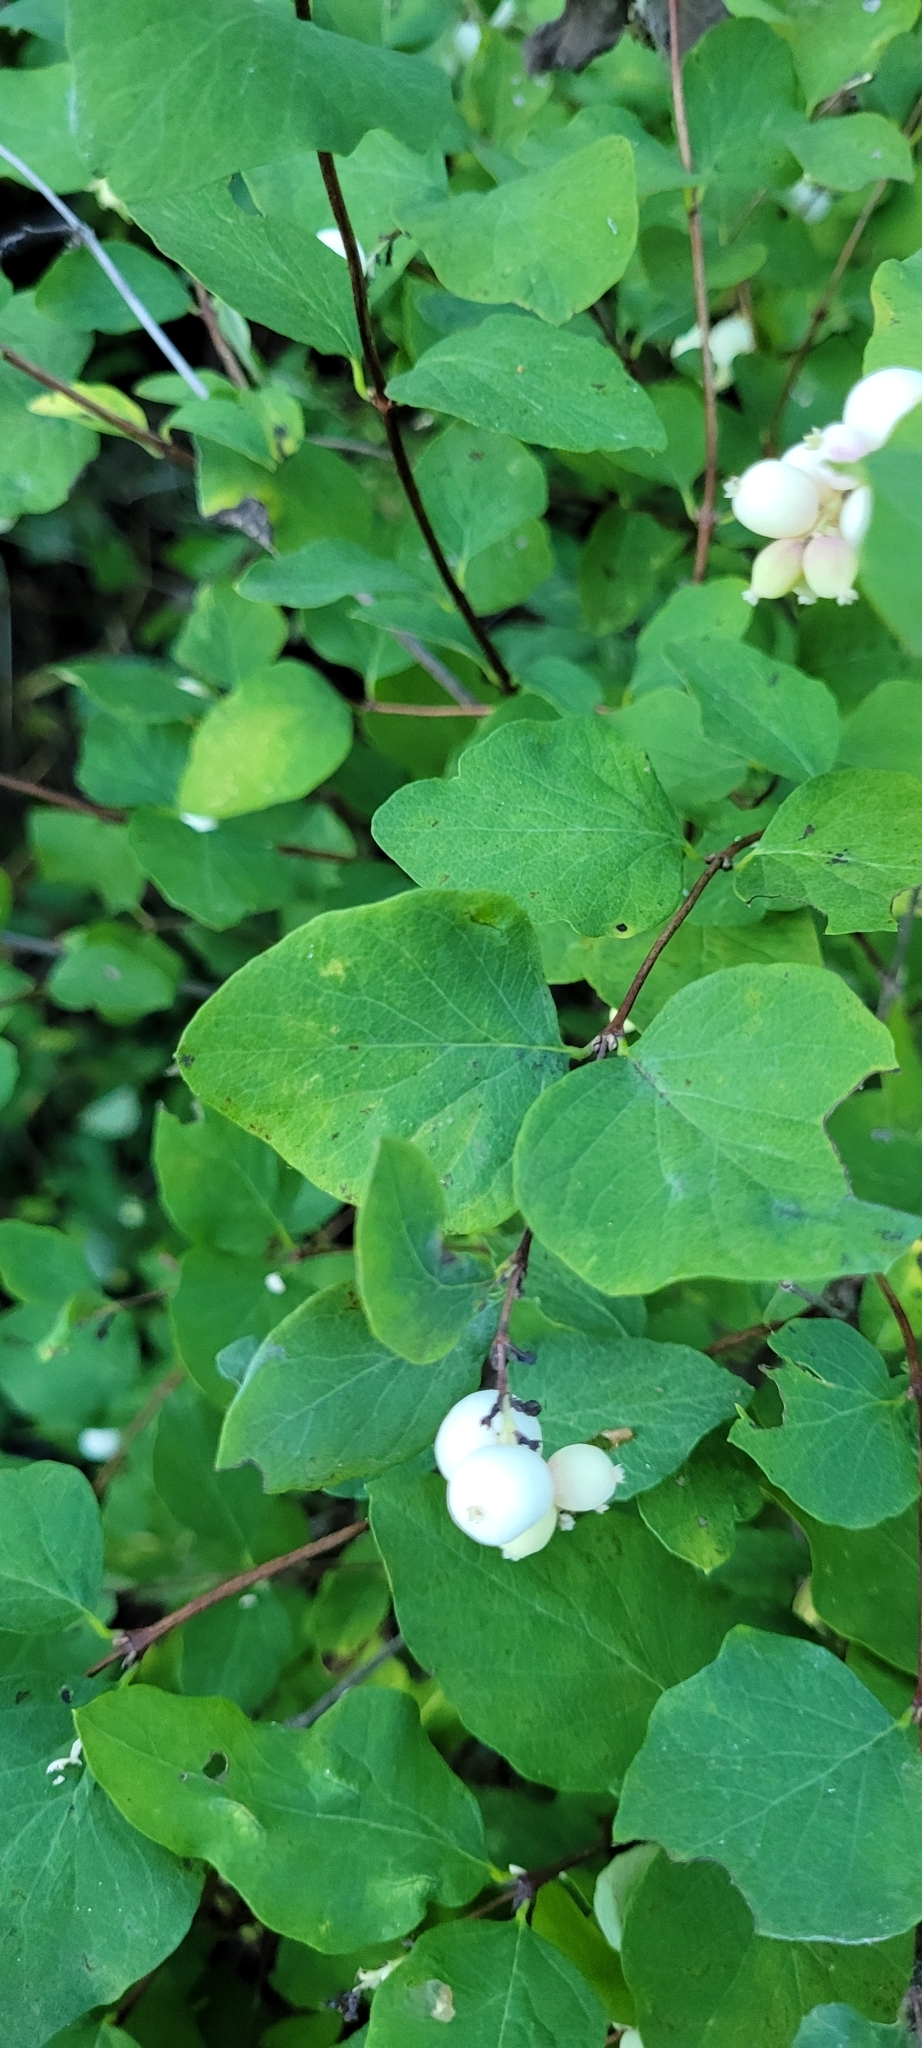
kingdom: Plantae
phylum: Tracheophyta
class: Magnoliopsida
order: Dipsacales
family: Caprifoliaceae
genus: Symphoricarpos
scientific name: Symphoricarpos albus
